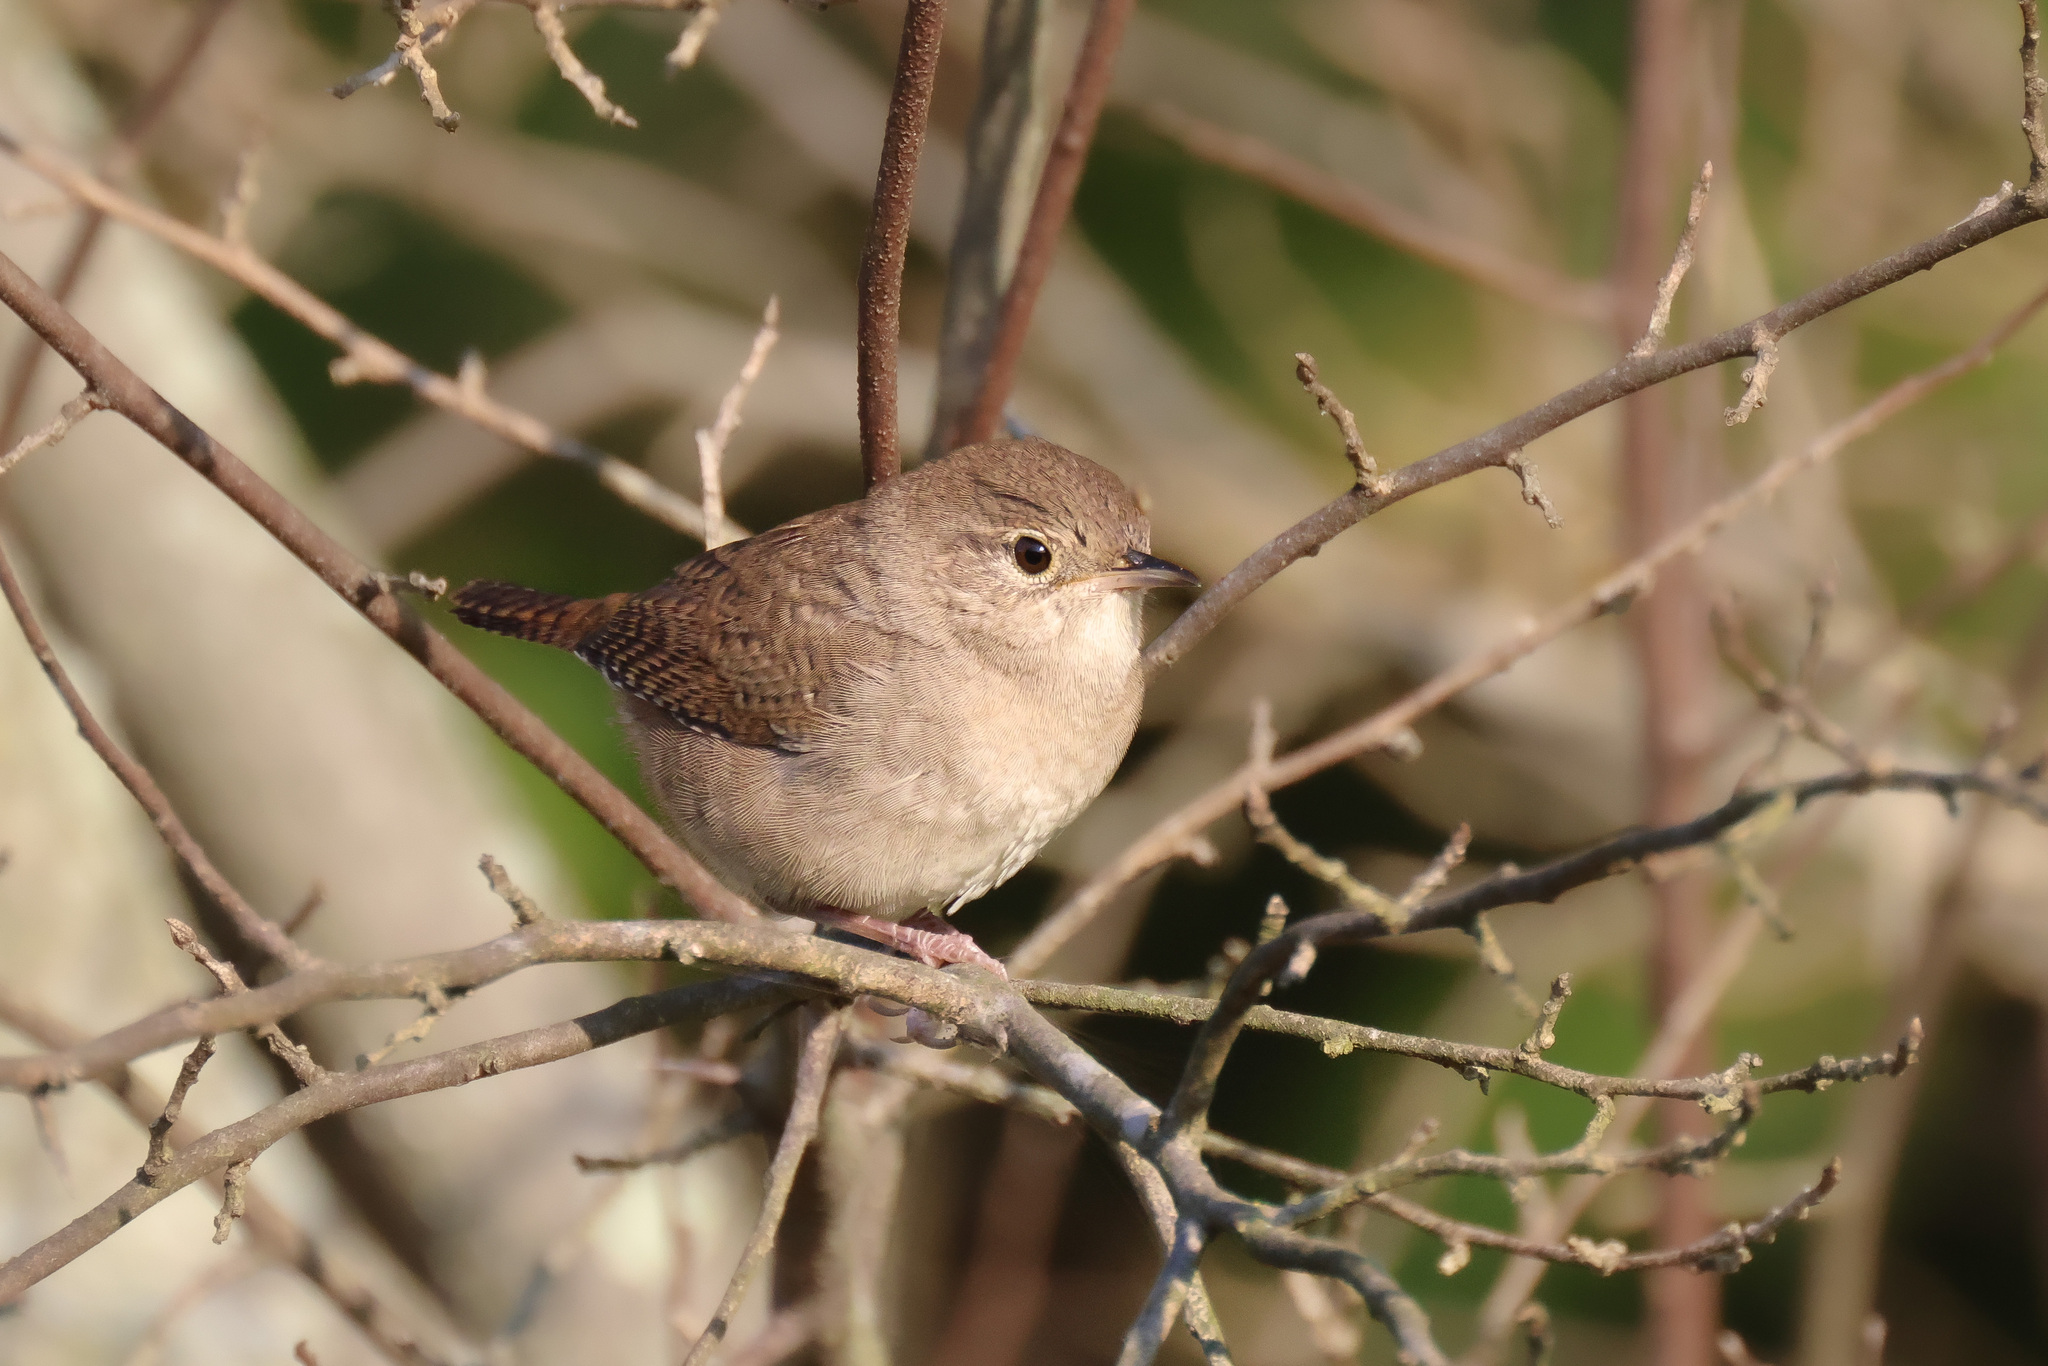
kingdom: Animalia
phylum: Chordata
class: Aves
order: Passeriformes
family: Troglodytidae
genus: Troglodytes
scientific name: Troglodytes aedon
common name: House wren
